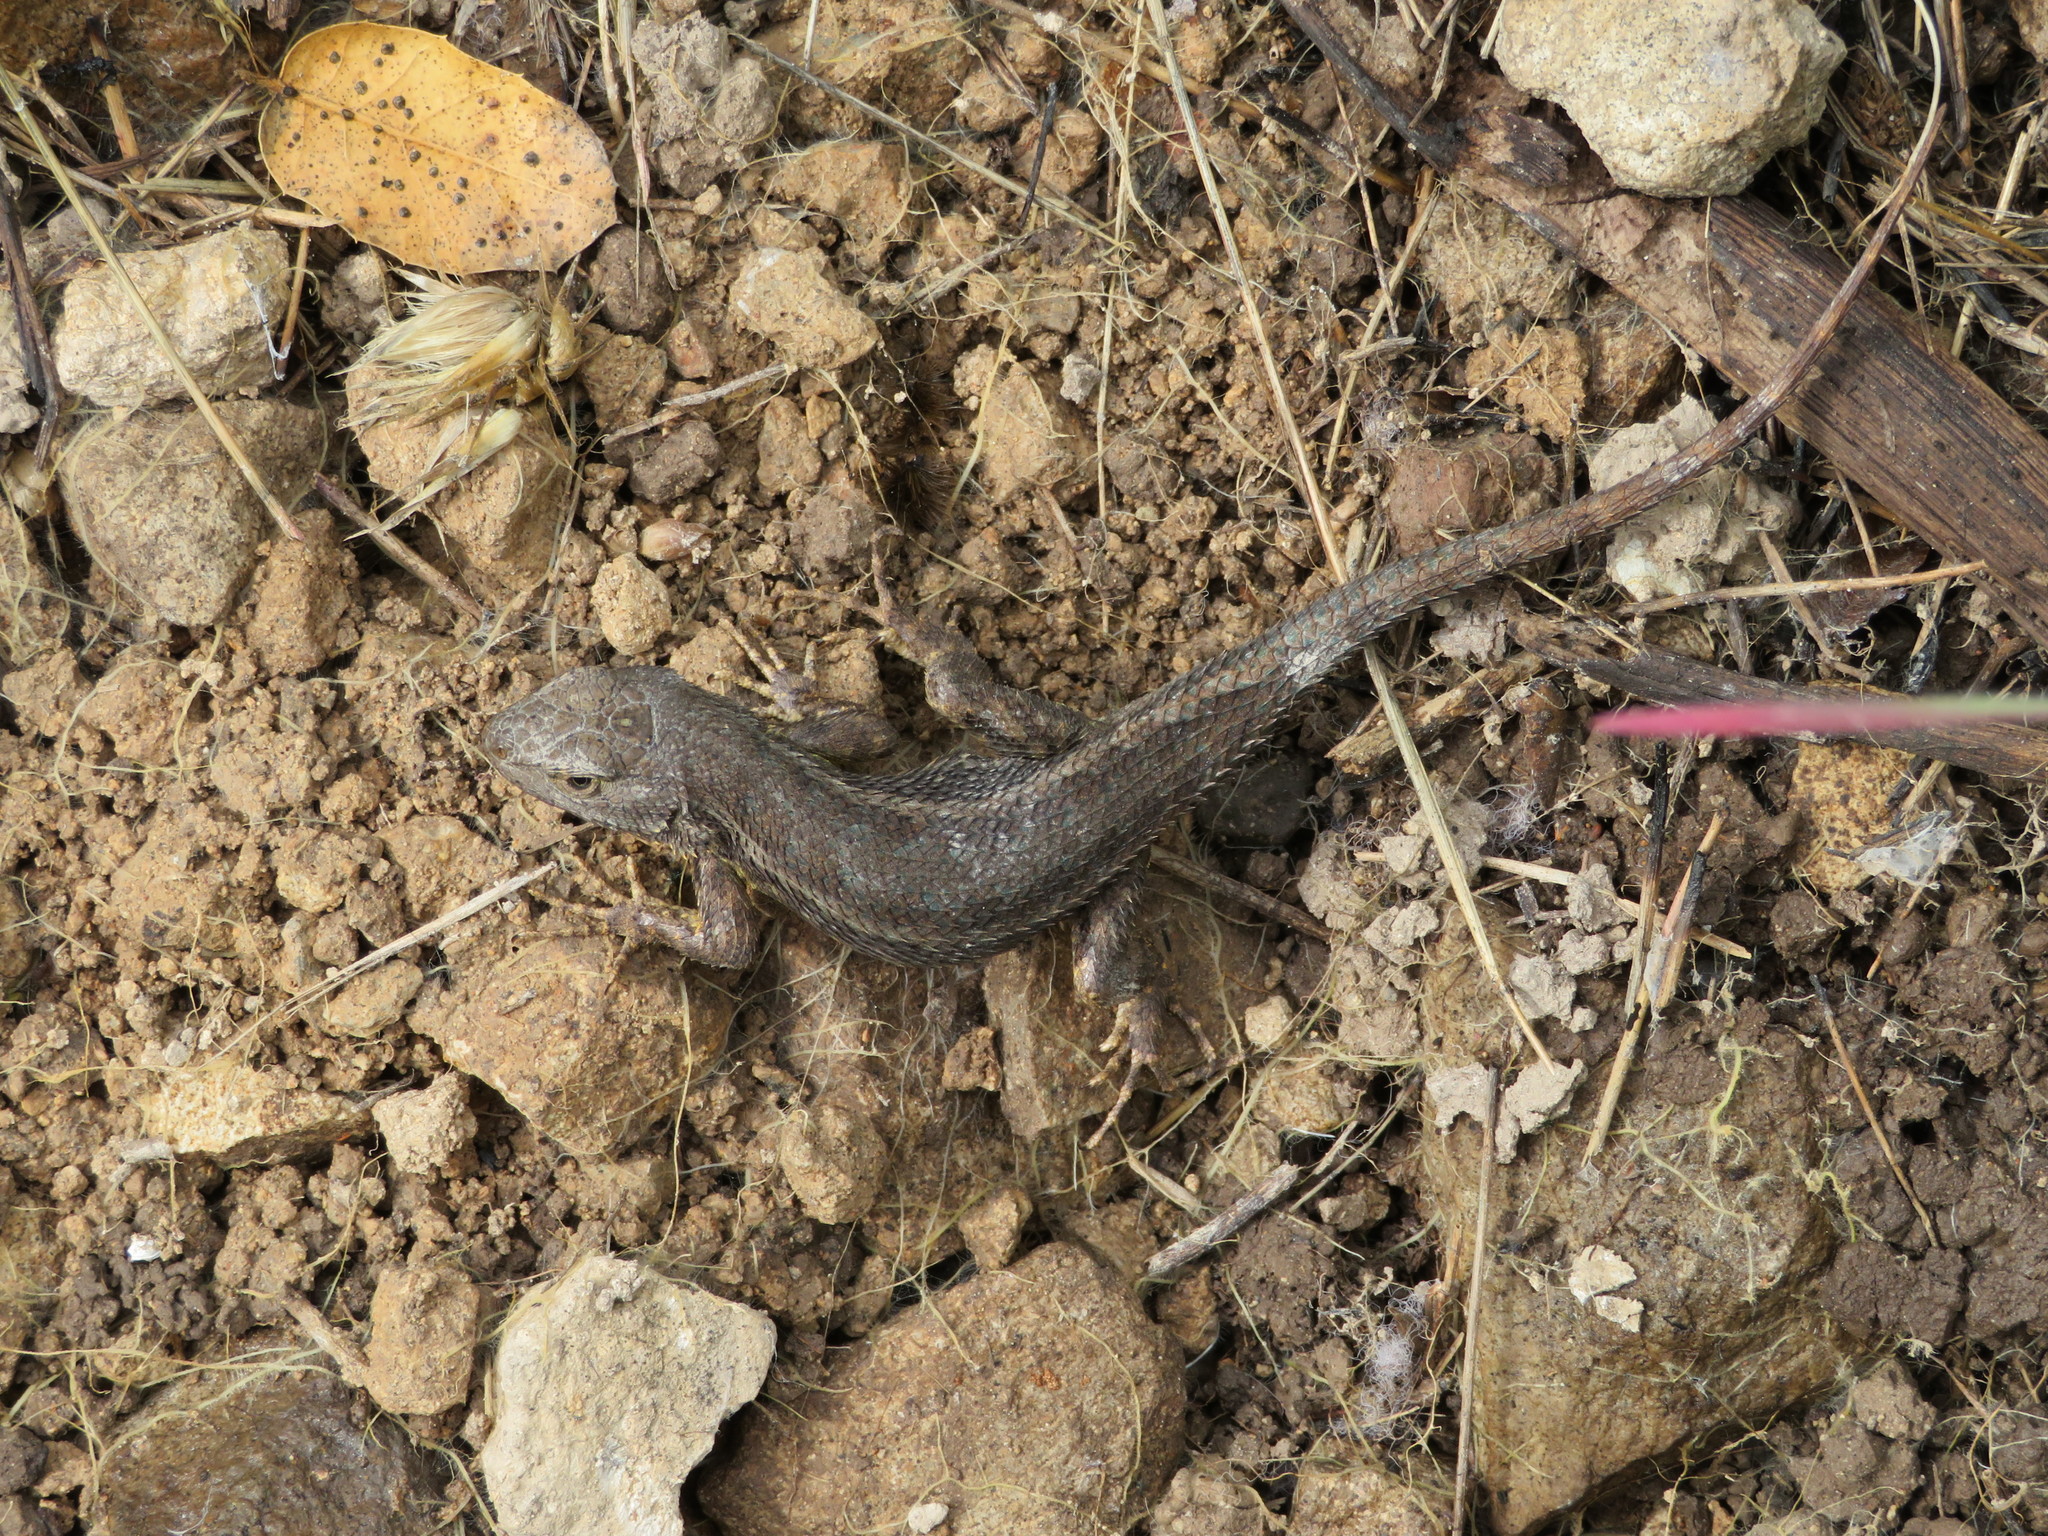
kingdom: Animalia
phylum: Chordata
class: Squamata
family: Phrynosomatidae
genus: Sceloporus
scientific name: Sceloporus occidentalis
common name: Western fence lizard
